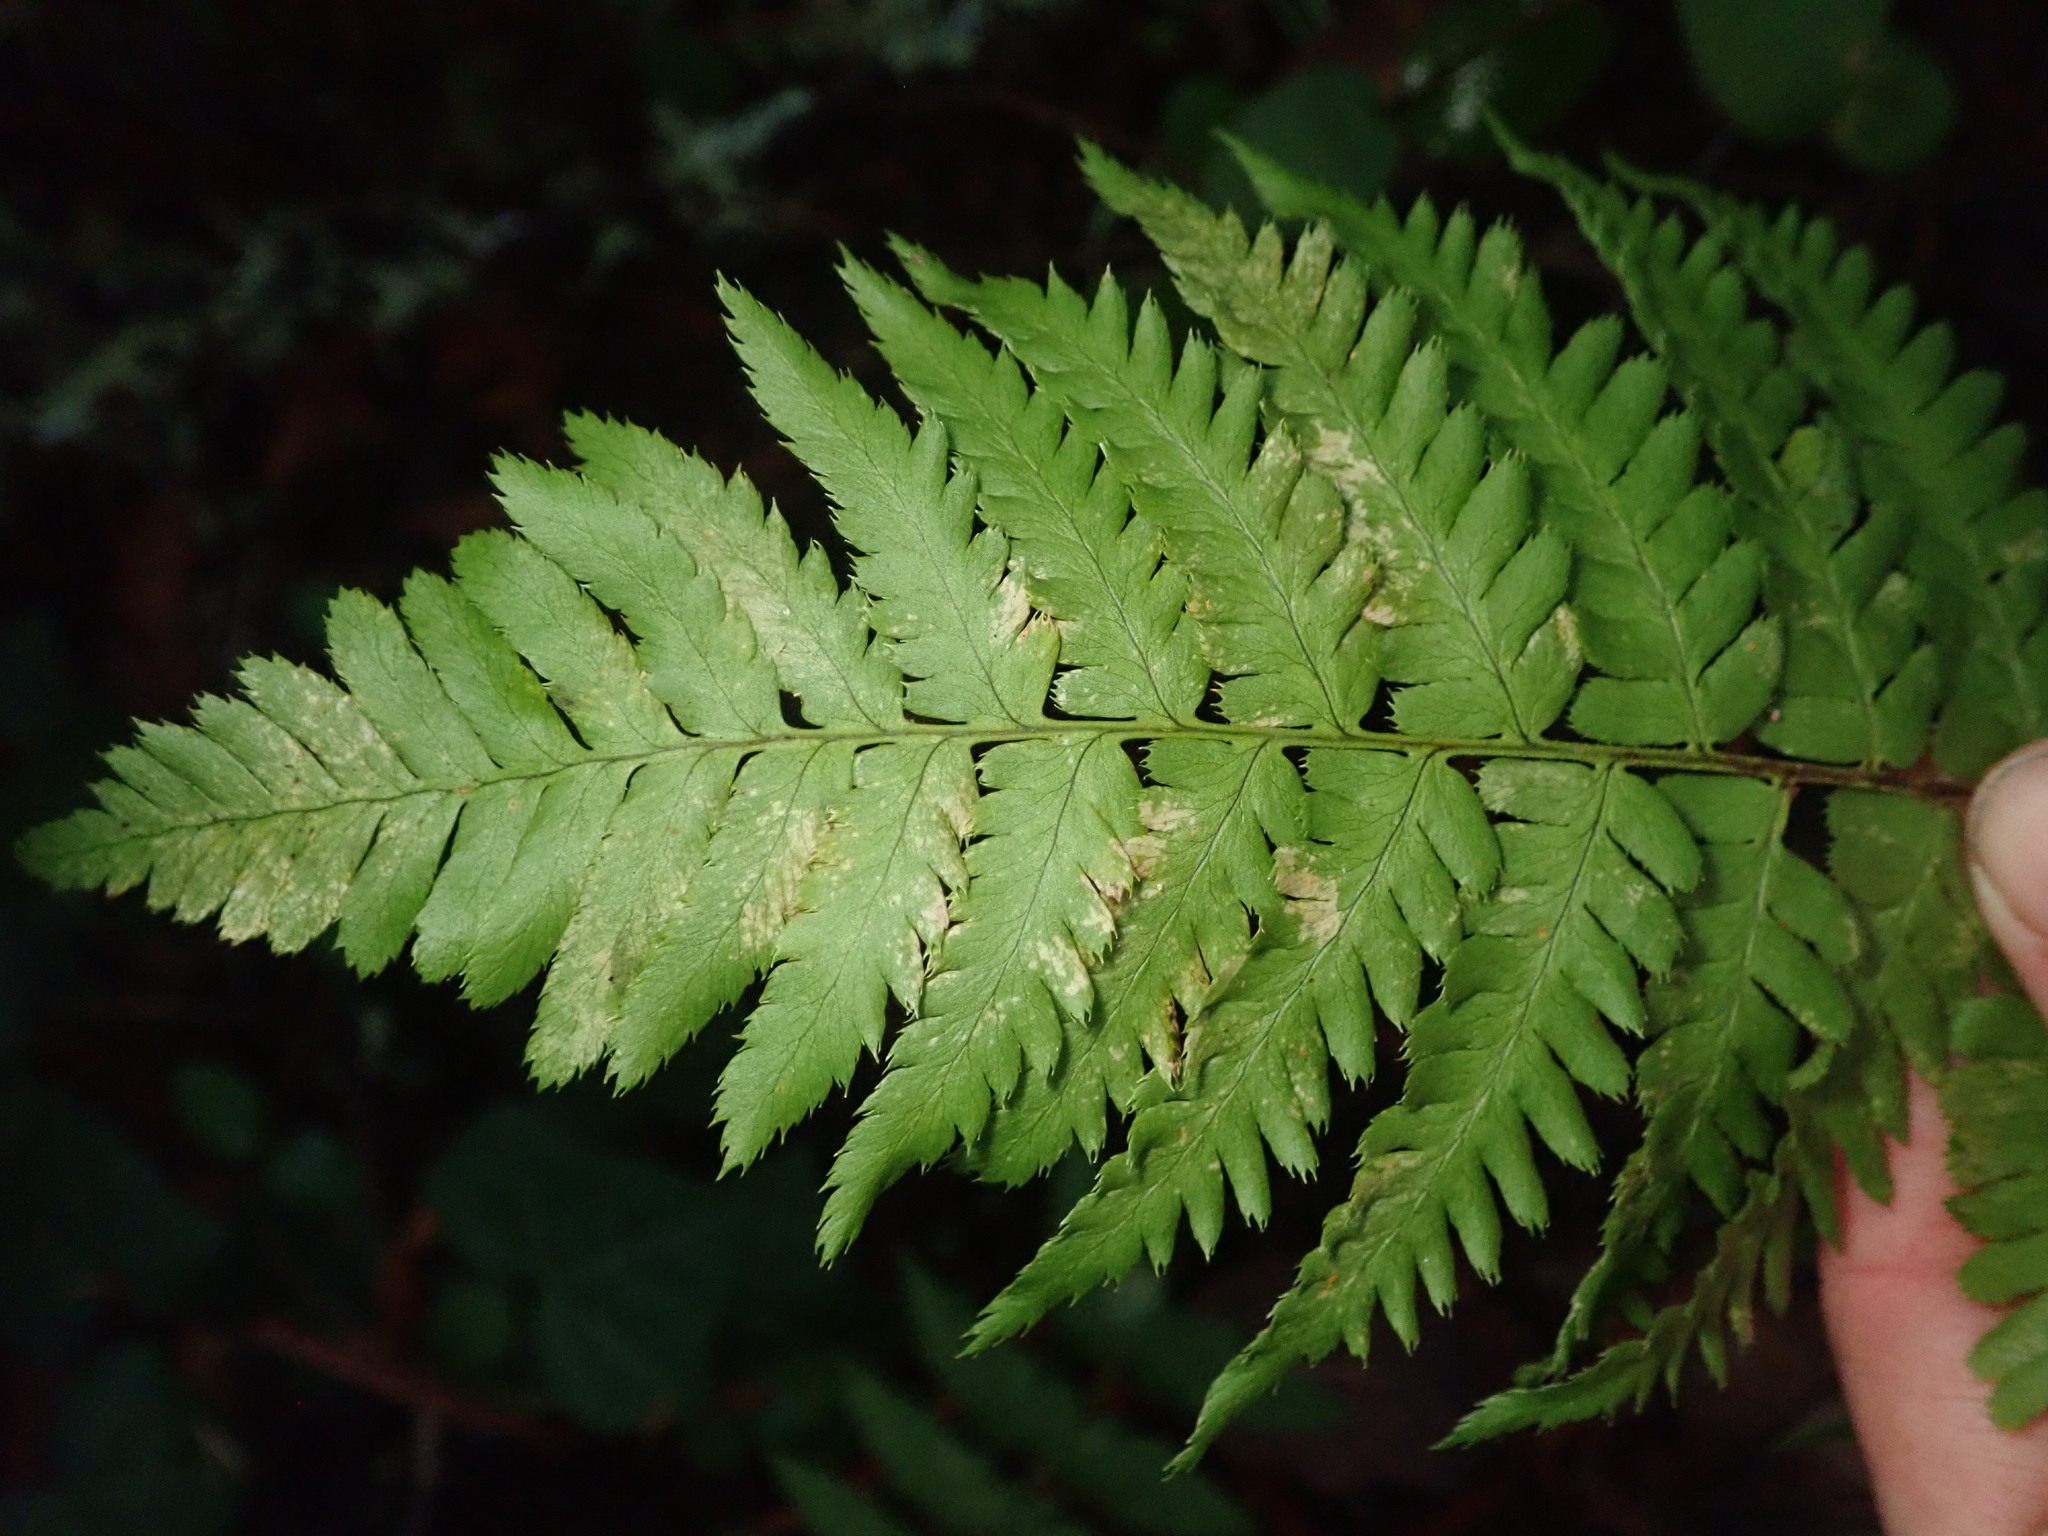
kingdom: Plantae
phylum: Tracheophyta
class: Polypodiopsida
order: Polypodiales
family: Dryopteridaceae
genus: Dryopteris
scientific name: Dryopteris arguta
